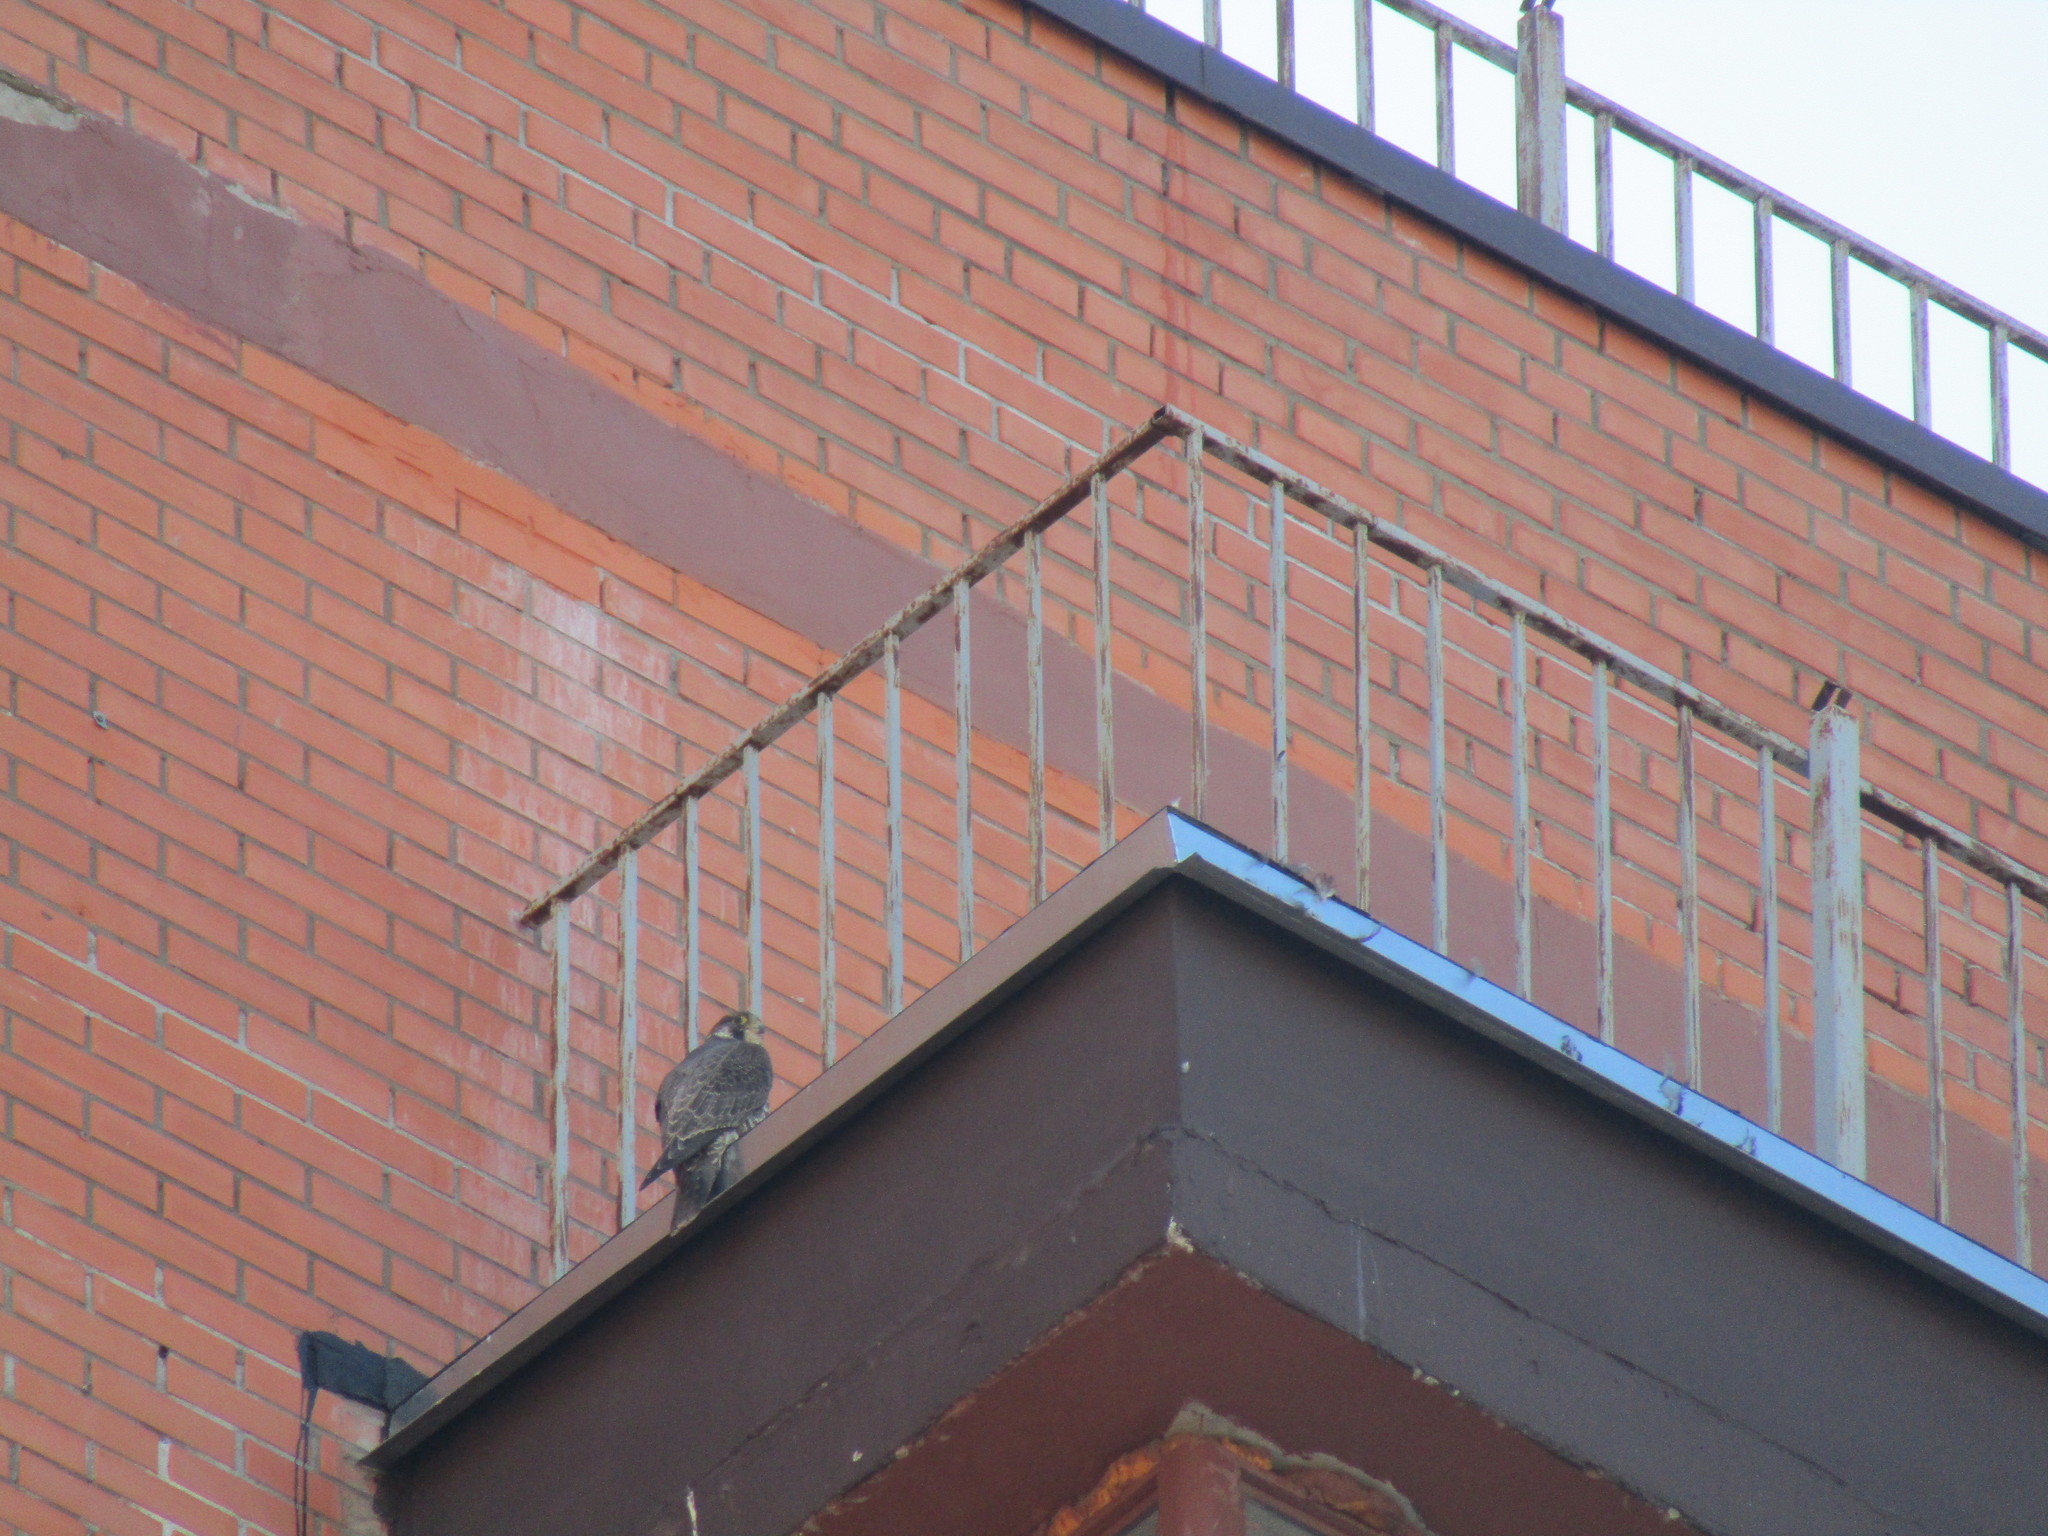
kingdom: Animalia
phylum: Chordata
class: Aves
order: Falconiformes
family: Falconidae
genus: Falco
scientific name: Falco peregrinus
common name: Peregrine falcon
